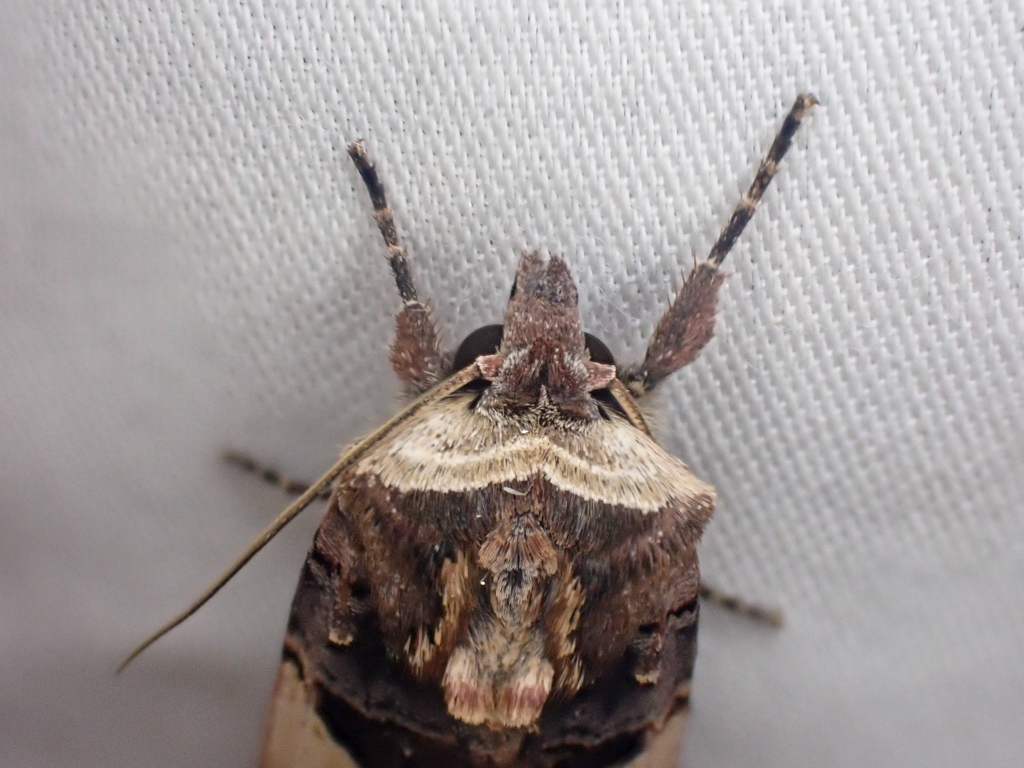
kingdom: Animalia
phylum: Arthropoda
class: Insecta
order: Lepidoptera
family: Noctuidae
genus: Xestia
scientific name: Xestia c-nigrum
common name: Setaceous hebrew character
